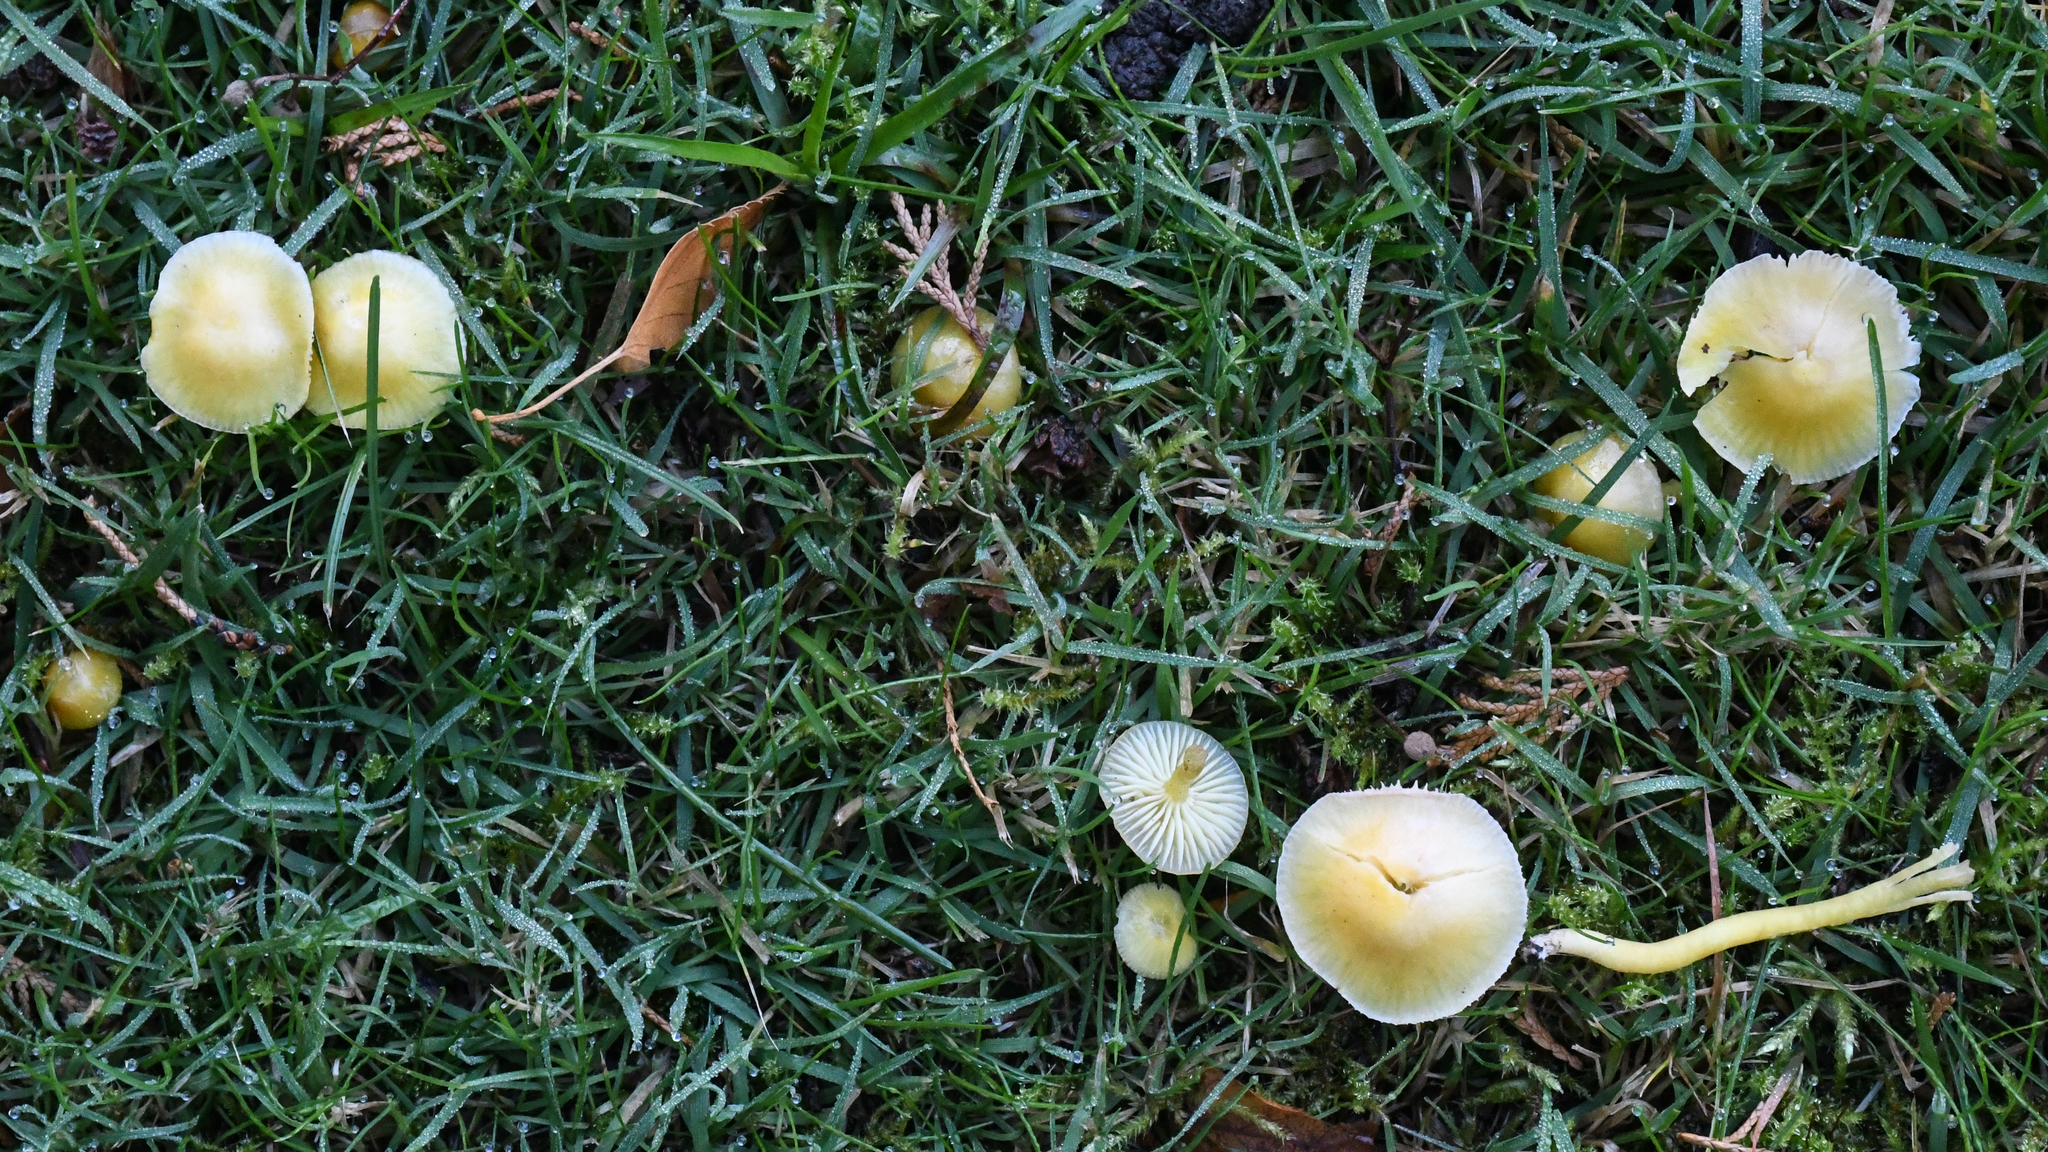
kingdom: Fungi
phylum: Basidiomycota
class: Agaricomycetes
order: Agaricales
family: Hygrophoraceae
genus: Hygrocybe
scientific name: Hygrocybe ceracea
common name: Butter waxcap
